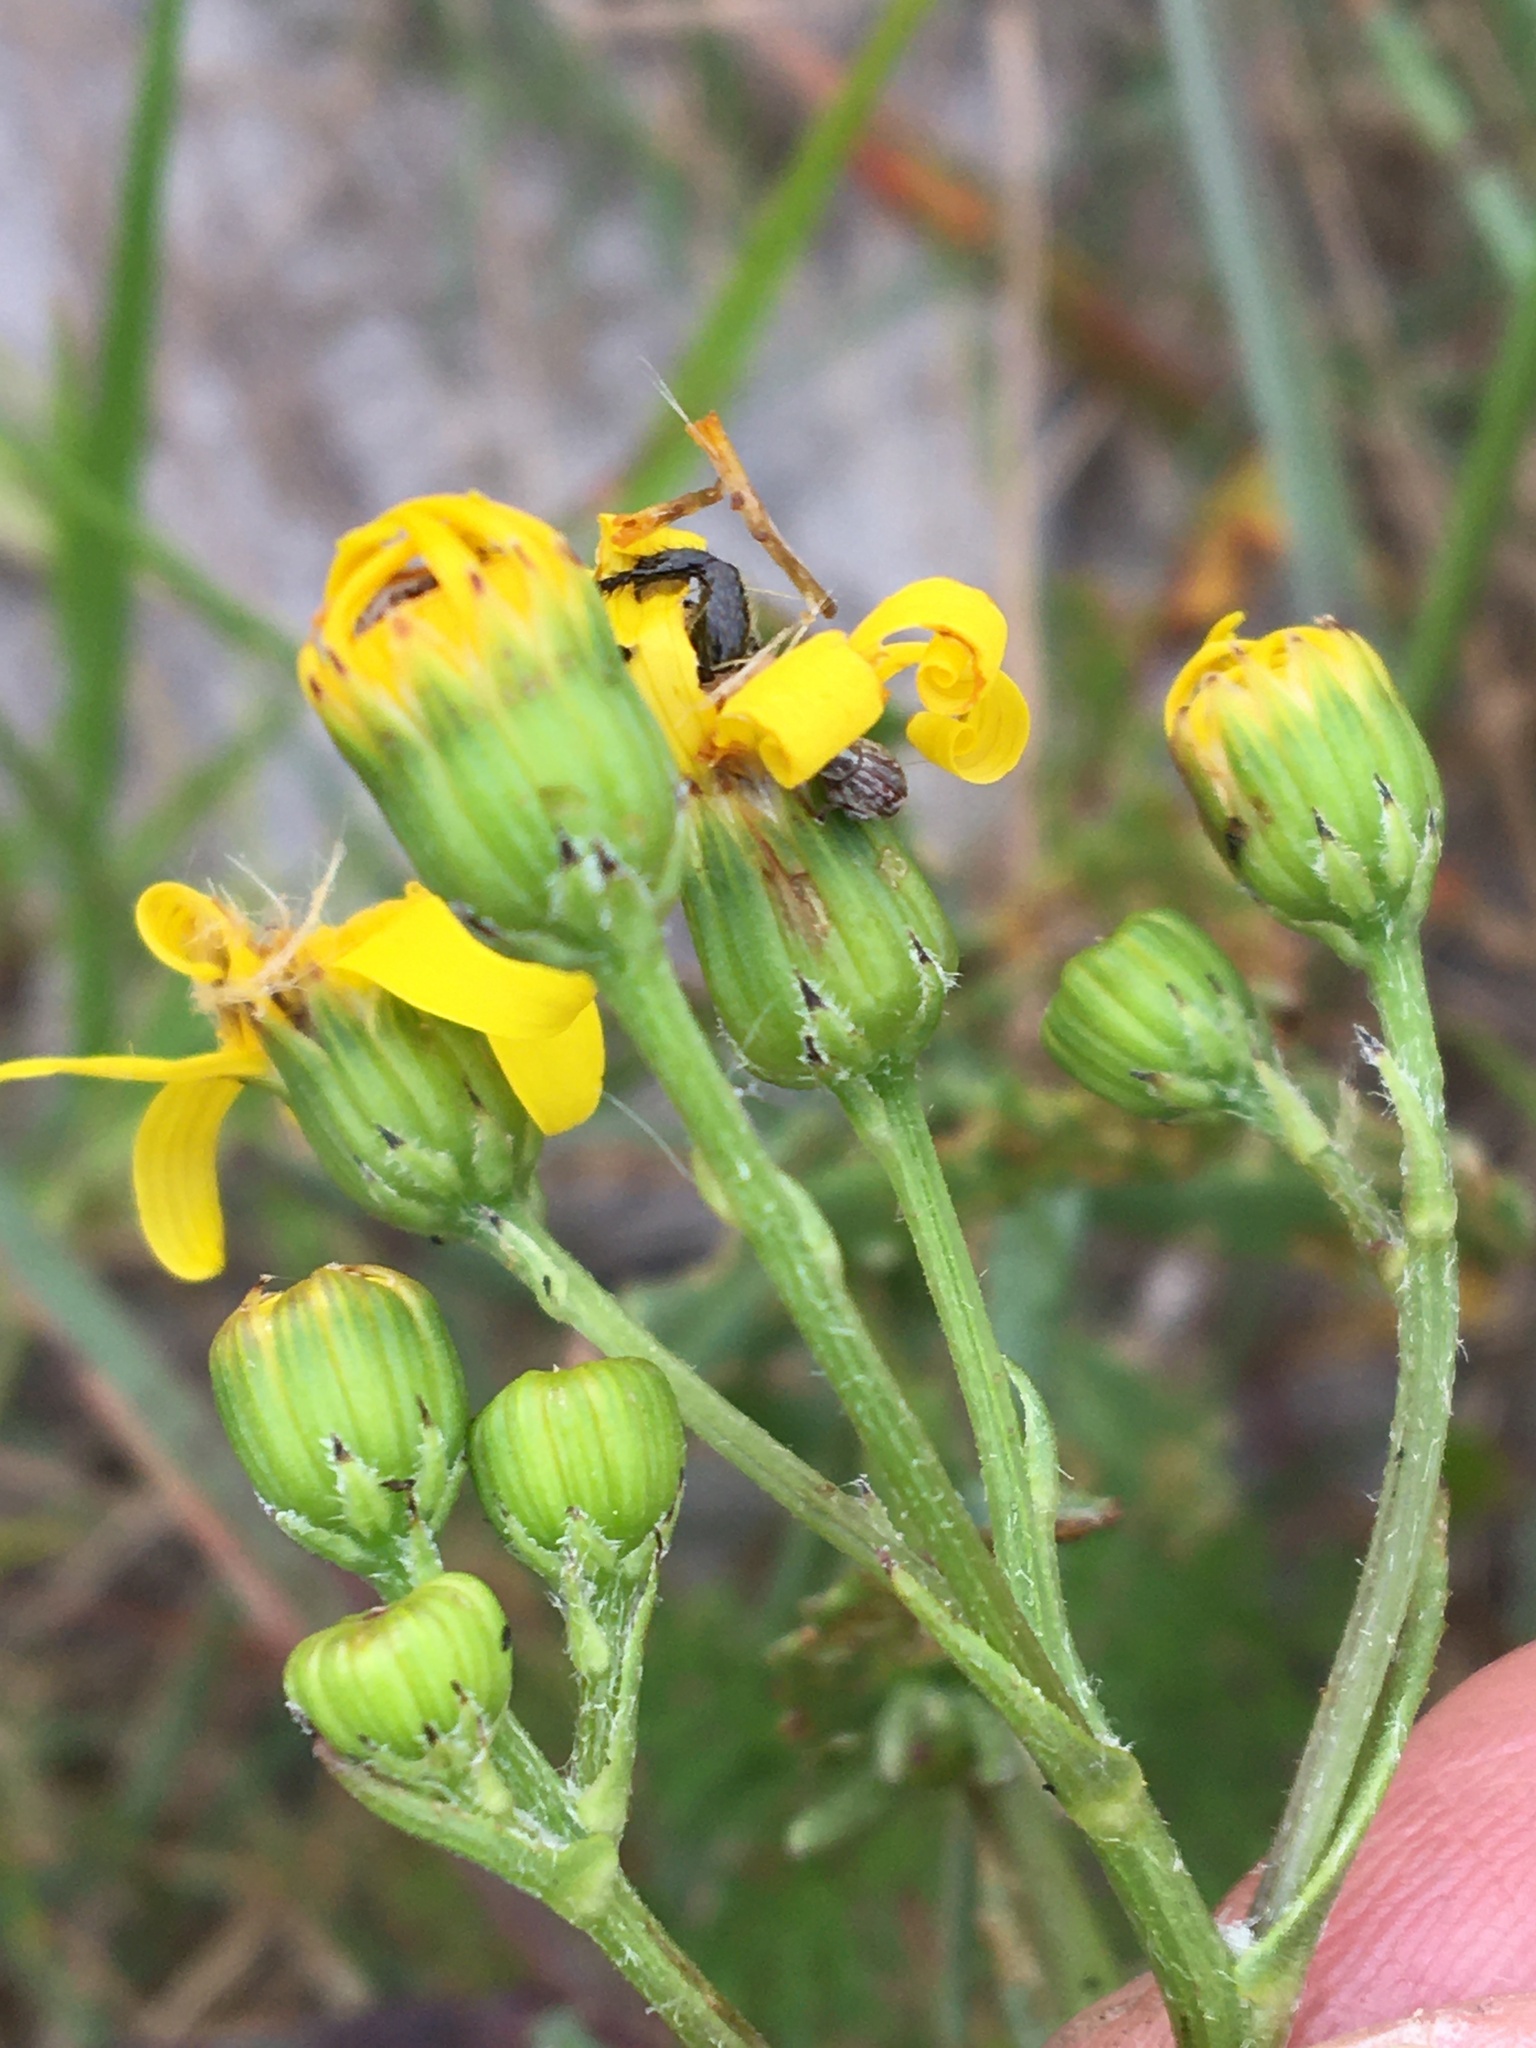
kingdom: Plantae
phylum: Tracheophyta
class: Magnoliopsida
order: Asterales
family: Asteraceae
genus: Senecio
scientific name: Senecio littoreus
